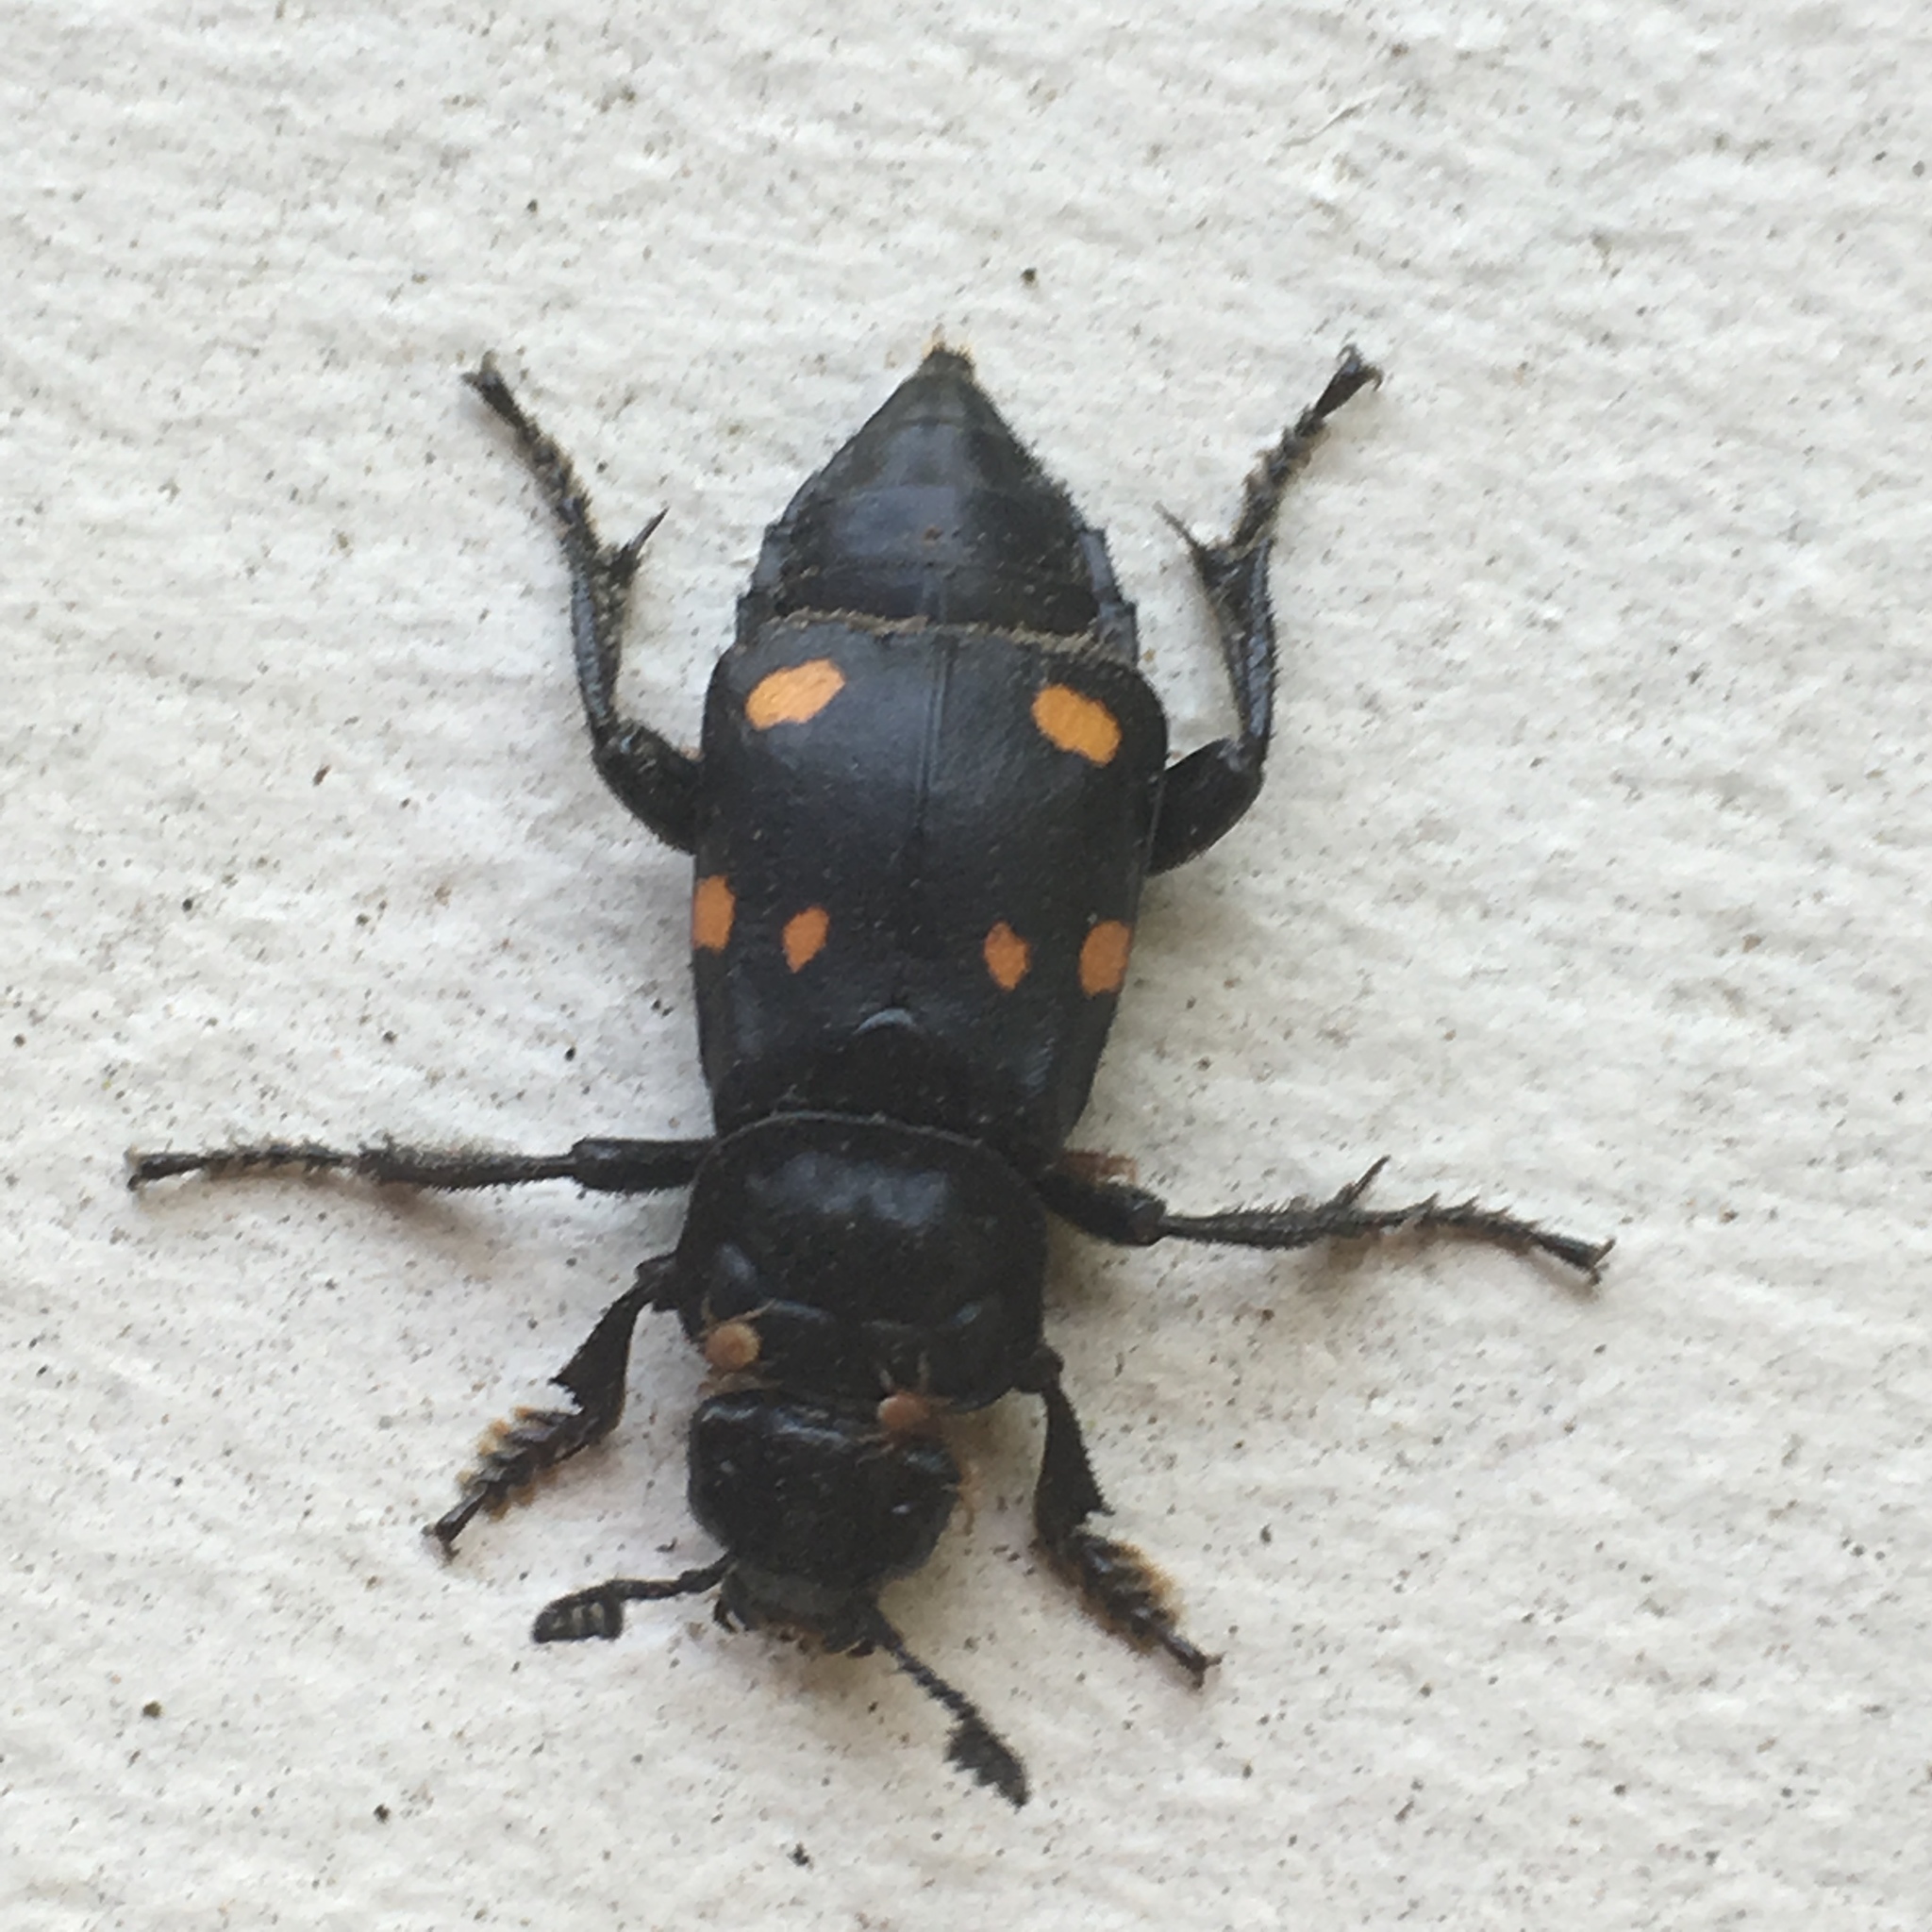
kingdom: Animalia
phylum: Arthropoda
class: Insecta
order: Coleoptera
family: Staphylinidae
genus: Nicrophorus
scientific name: Nicrophorus defodiens
